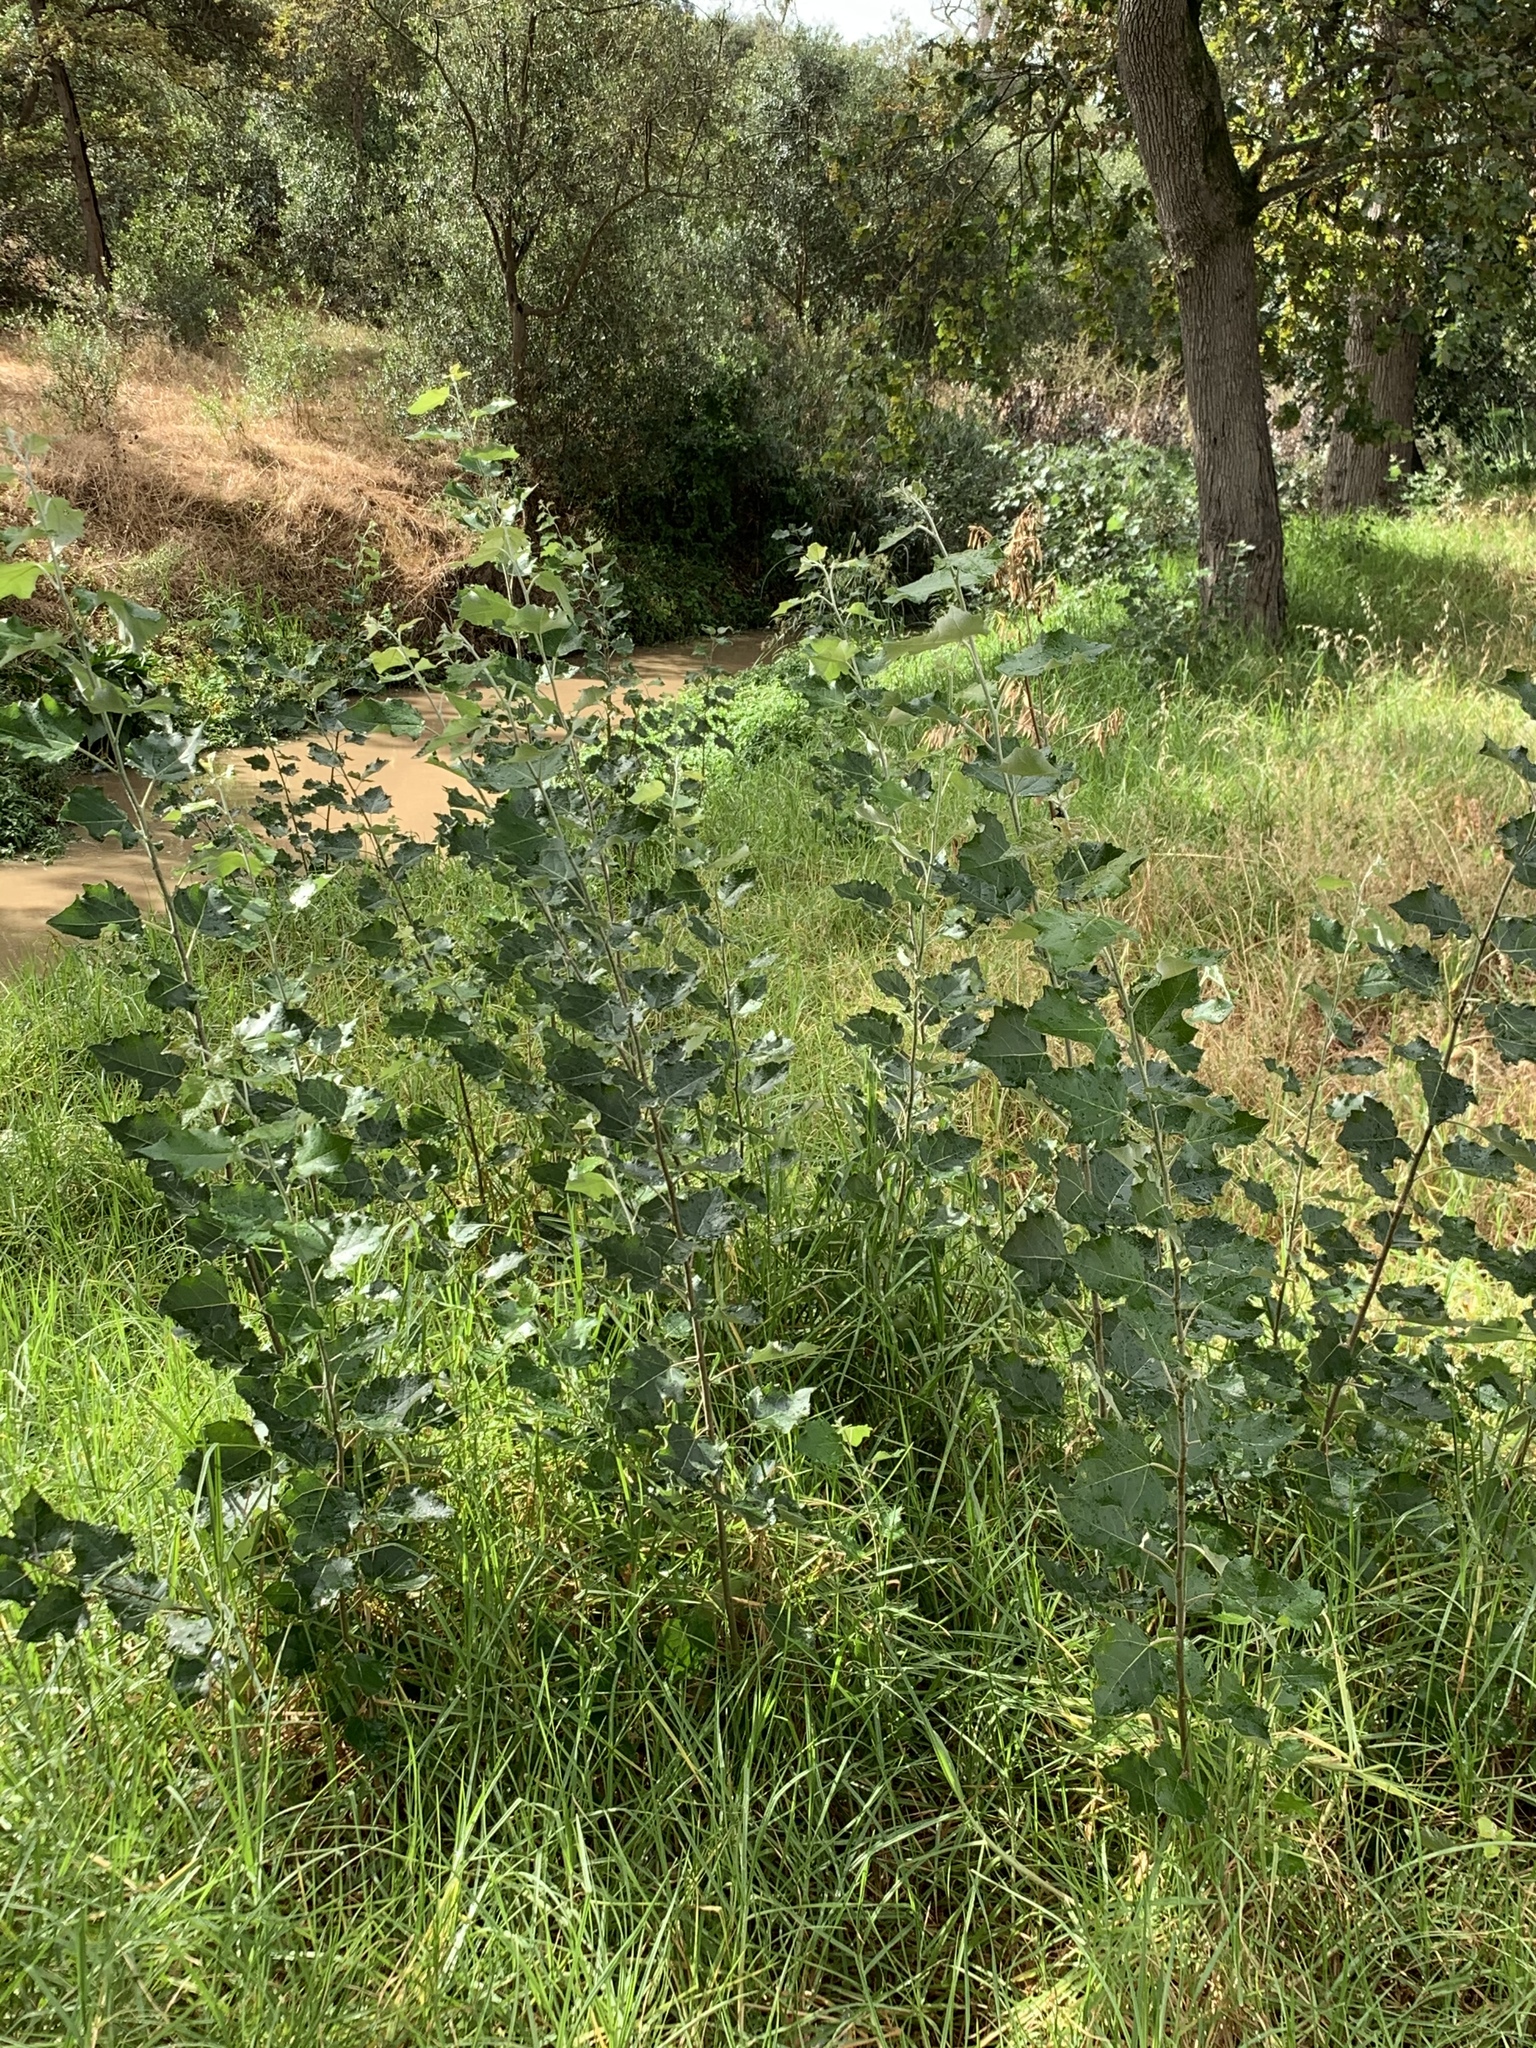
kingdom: Plantae
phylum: Tracheophyta
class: Magnoliopsida
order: Malpighiales
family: Salicaceae
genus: Populus
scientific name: Populus canescens
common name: Gray poplar
